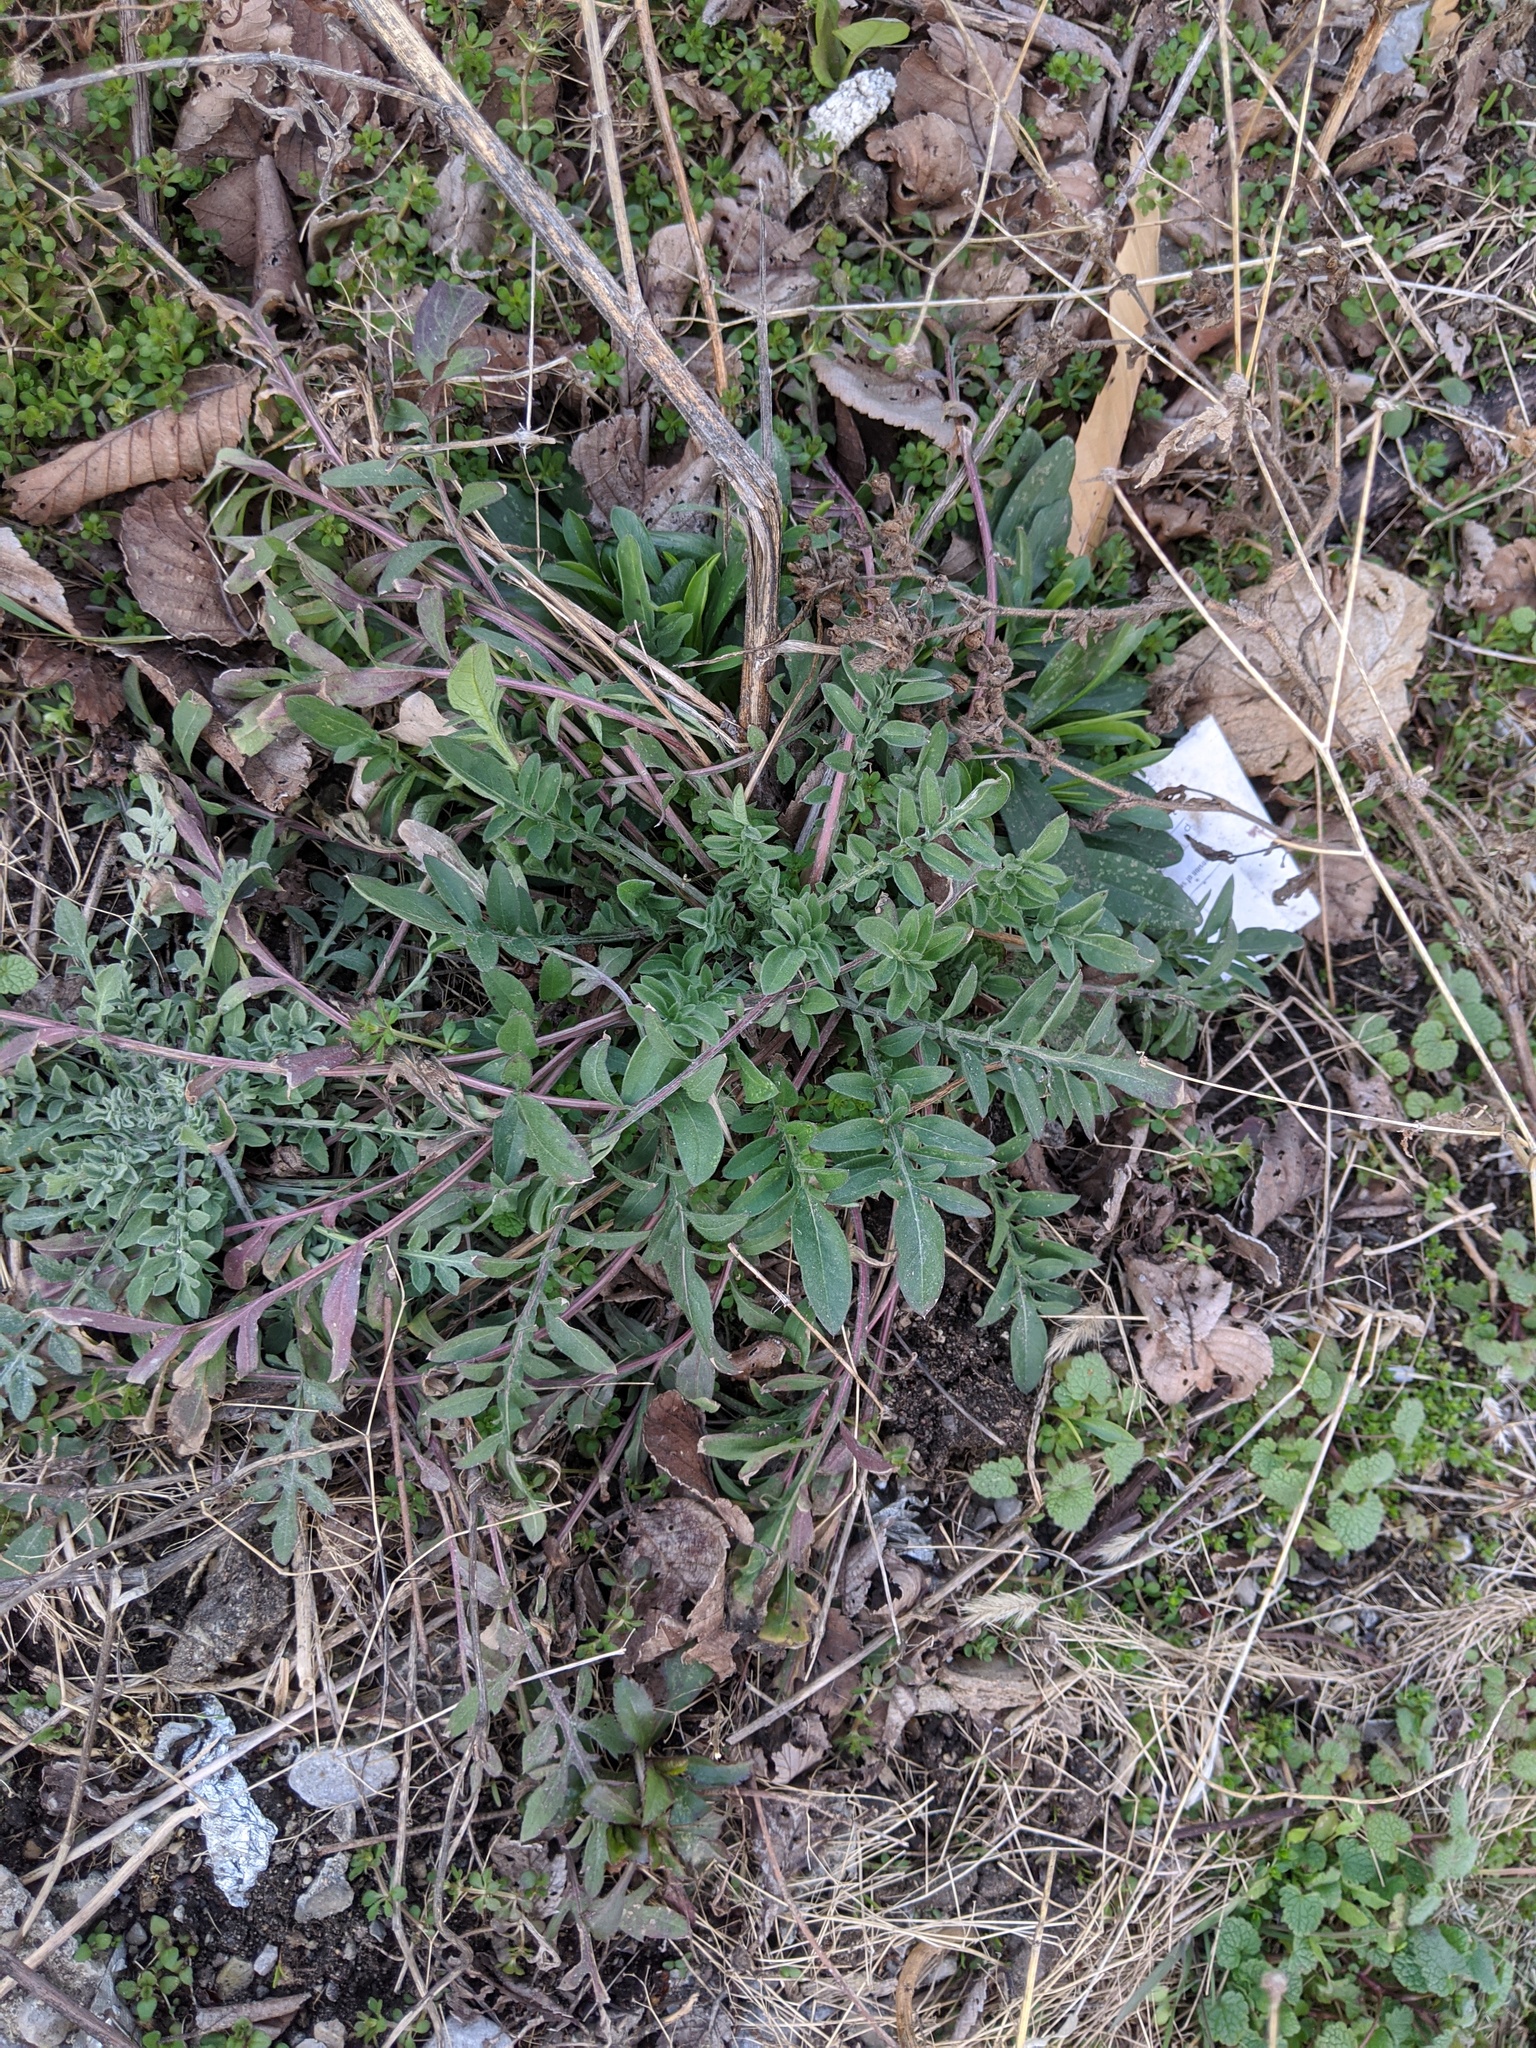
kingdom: Plantae
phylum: Tracheophyta
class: Magnoliopsida
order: Asterales
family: Asteraceae
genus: Centaurea
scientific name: Centaurea stoebe
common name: Spotted knapweed
